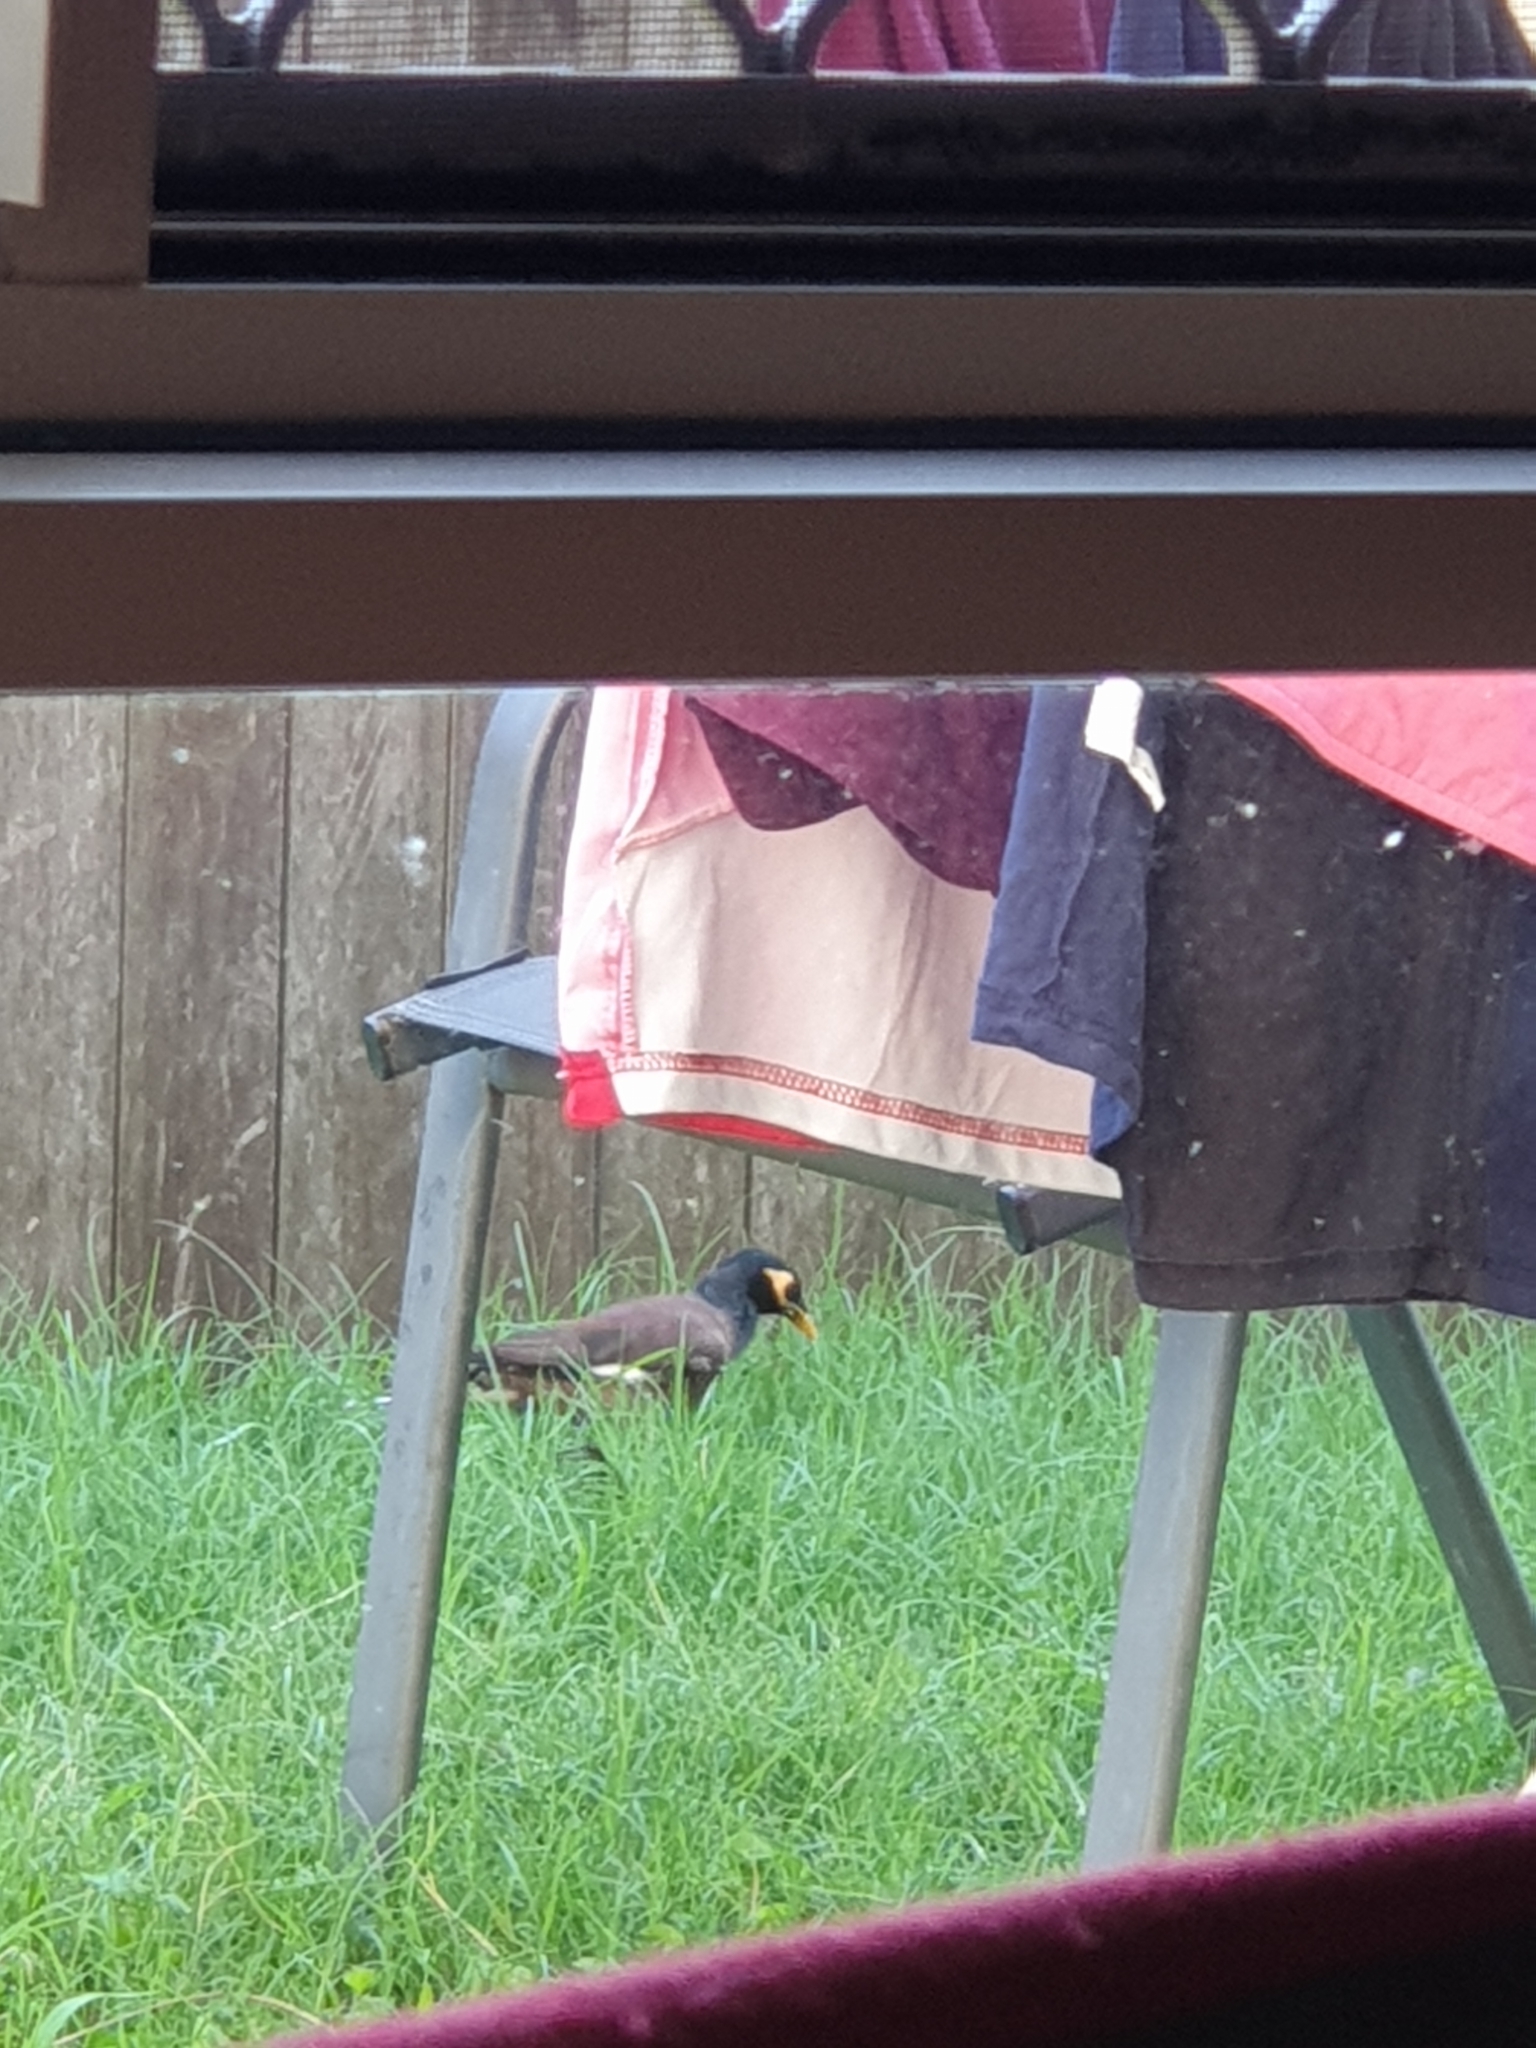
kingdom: Animalia
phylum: Chordata
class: Aves
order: Passeriformes
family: Sturnidae
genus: Acridotheres
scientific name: Acridotheres tristis
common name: Common myna
